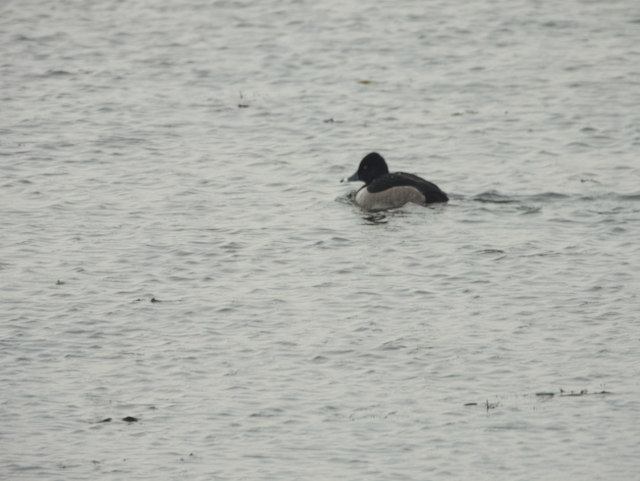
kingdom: Animalia
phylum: Chordata
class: Aves
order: Anseriformes
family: Anatidae
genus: Aythya
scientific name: Aythya collaris
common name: Ring-necked duck
